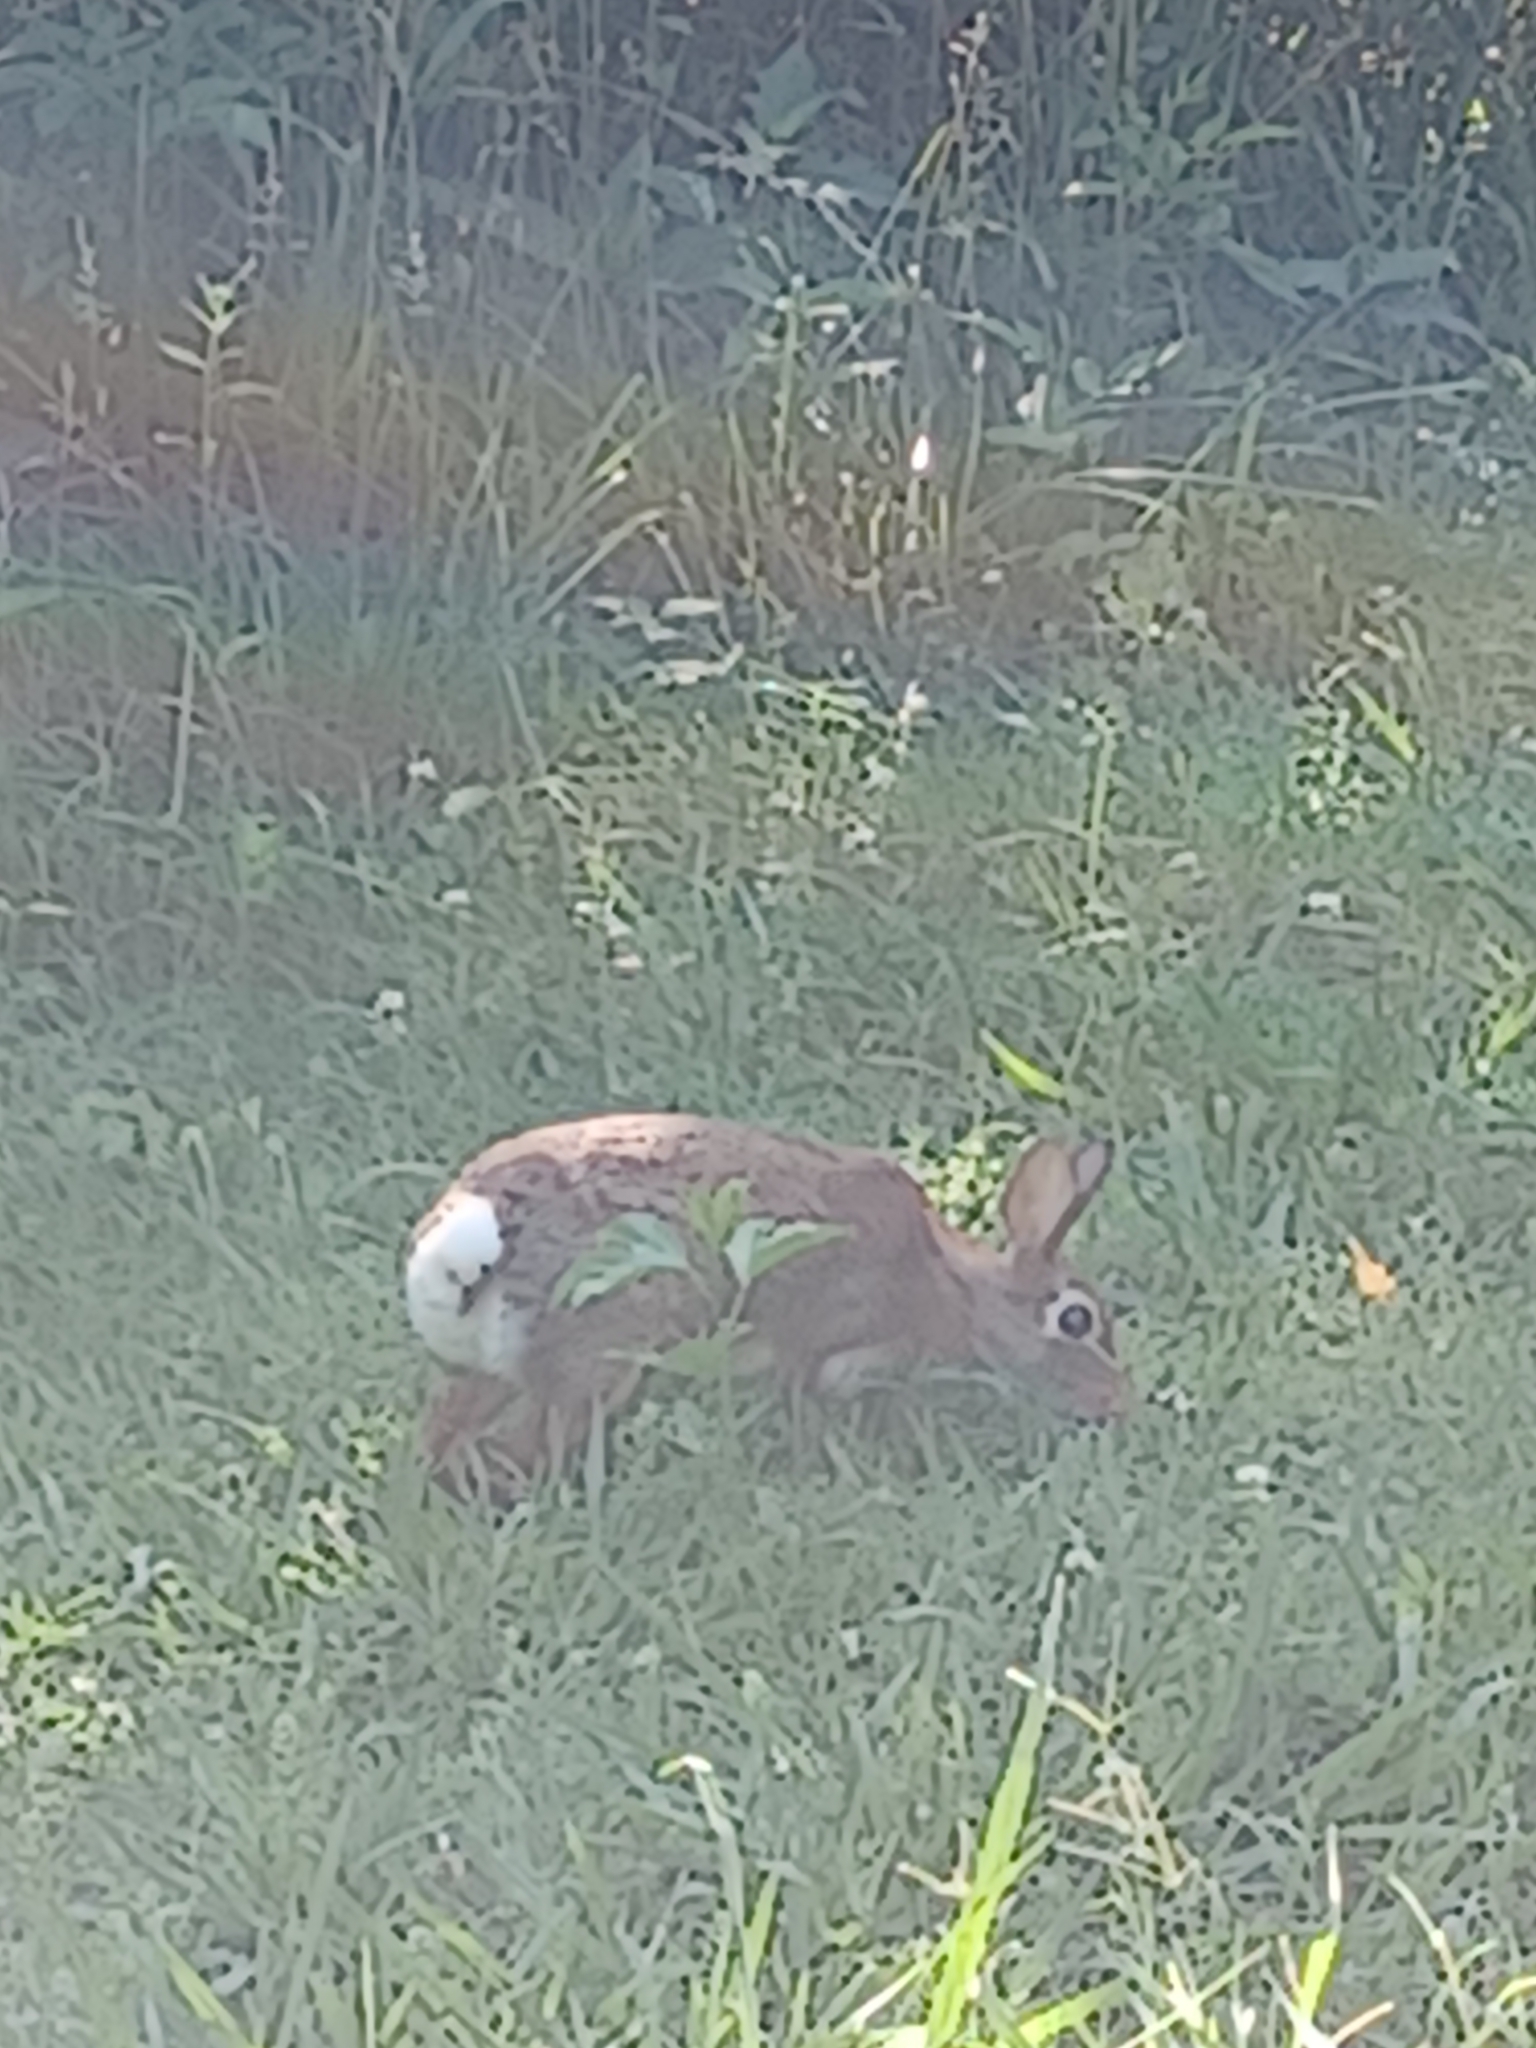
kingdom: Animalia
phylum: Chordata
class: Mammalia
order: Lagomorpha
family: Leporidae
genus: Sylvilagus
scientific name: Sylvilagus floridanus
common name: Eastern cottontail
